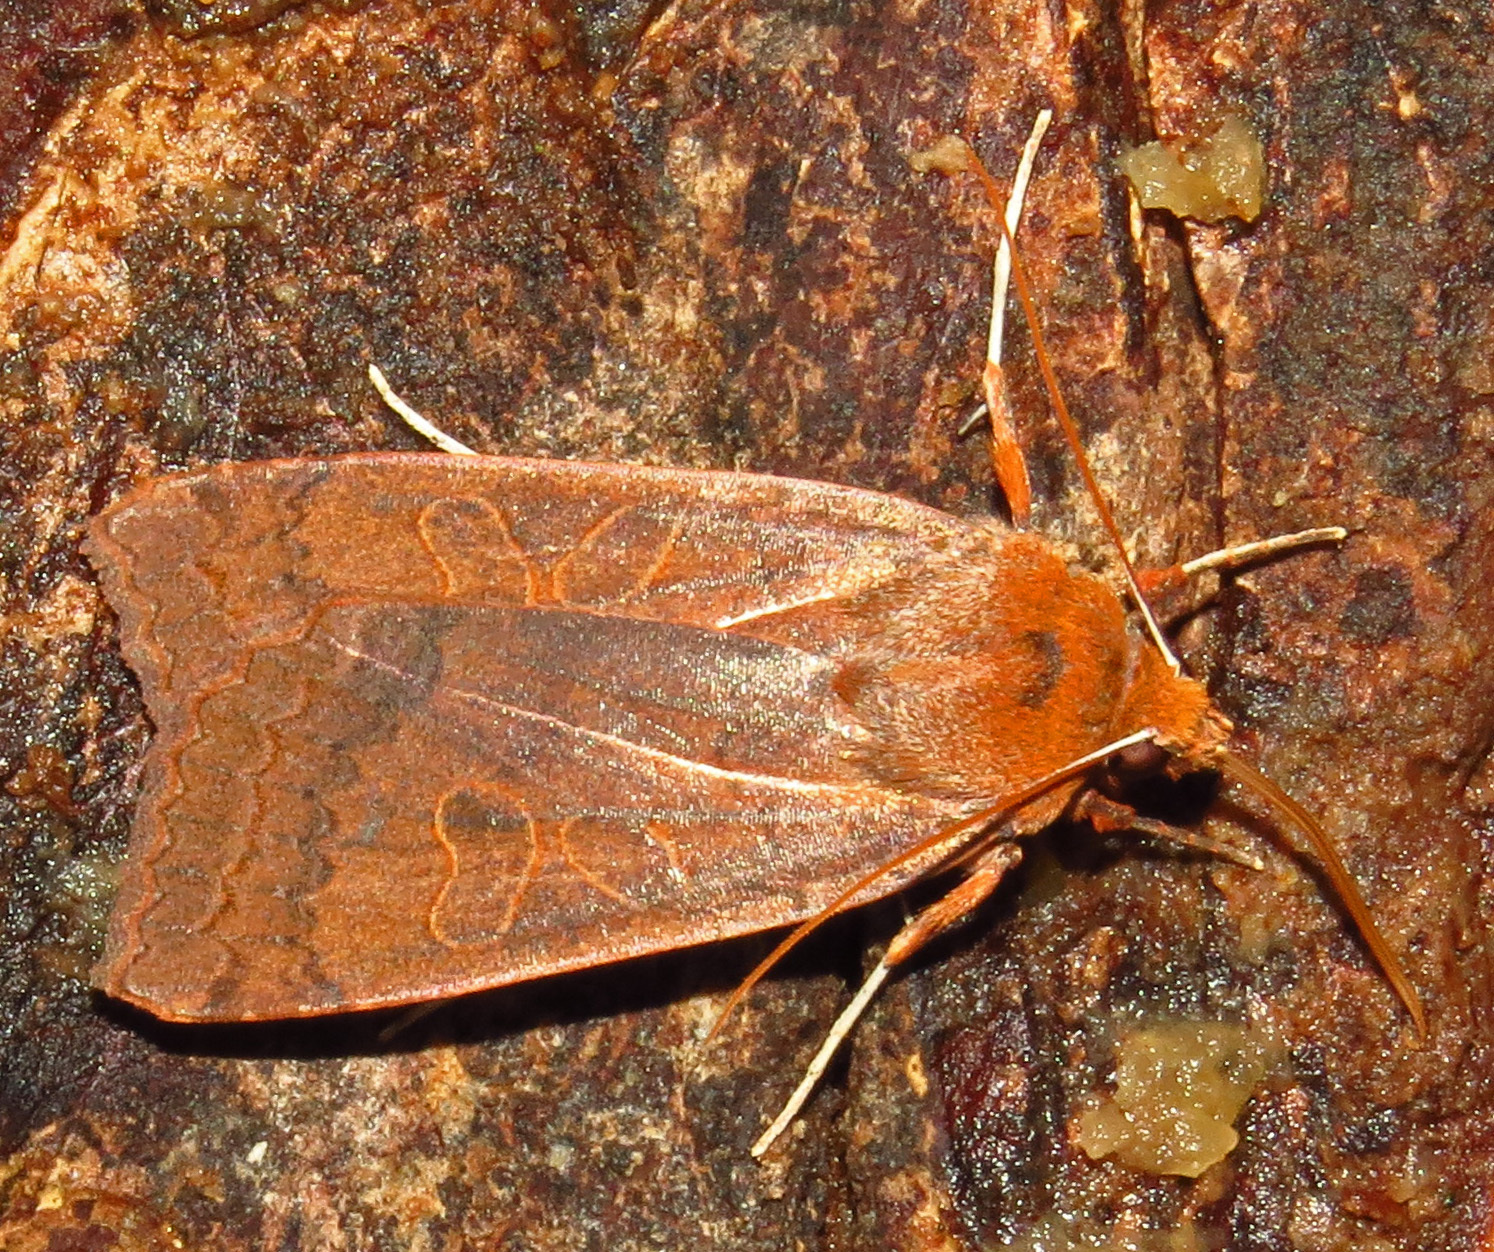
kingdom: Animalia
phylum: Arthropoda
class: Insecta
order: Lepidoptera
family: Noctuidae
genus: Metaxaglaea
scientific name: Metaxaglaea viatica
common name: Roadside sallow
